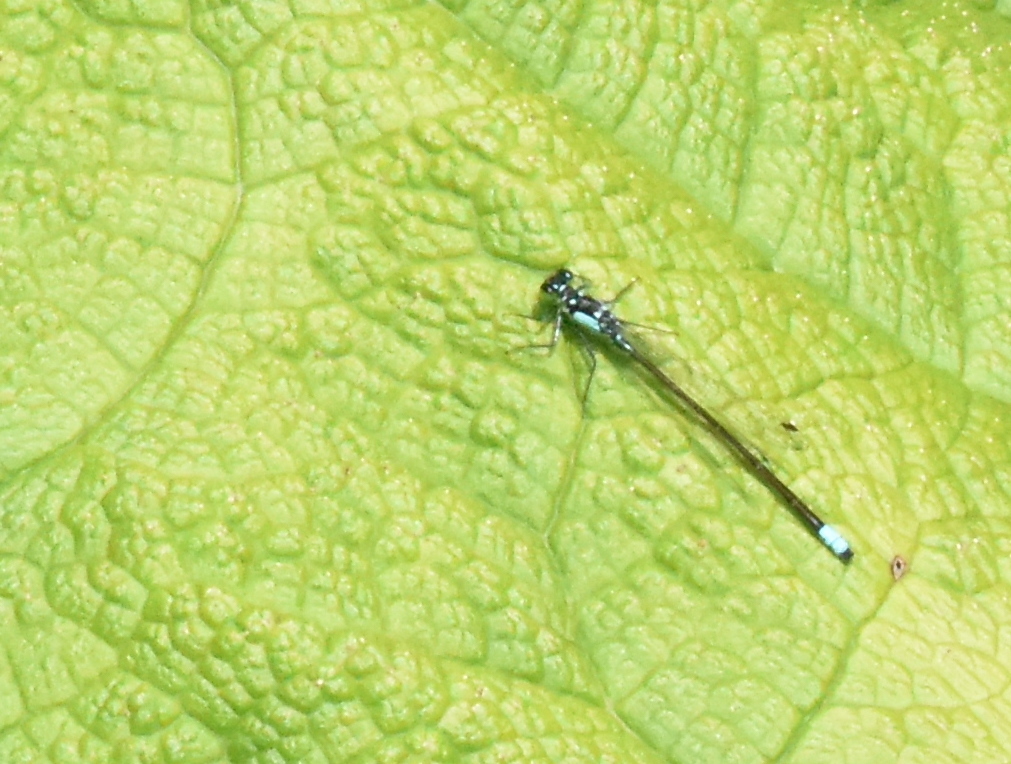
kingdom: Animalia
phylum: Arthropoda
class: Insecta
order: Odonata
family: Coenagrionidae
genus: Ischnura
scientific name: Ischnura cervula
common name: Pacific forktail
